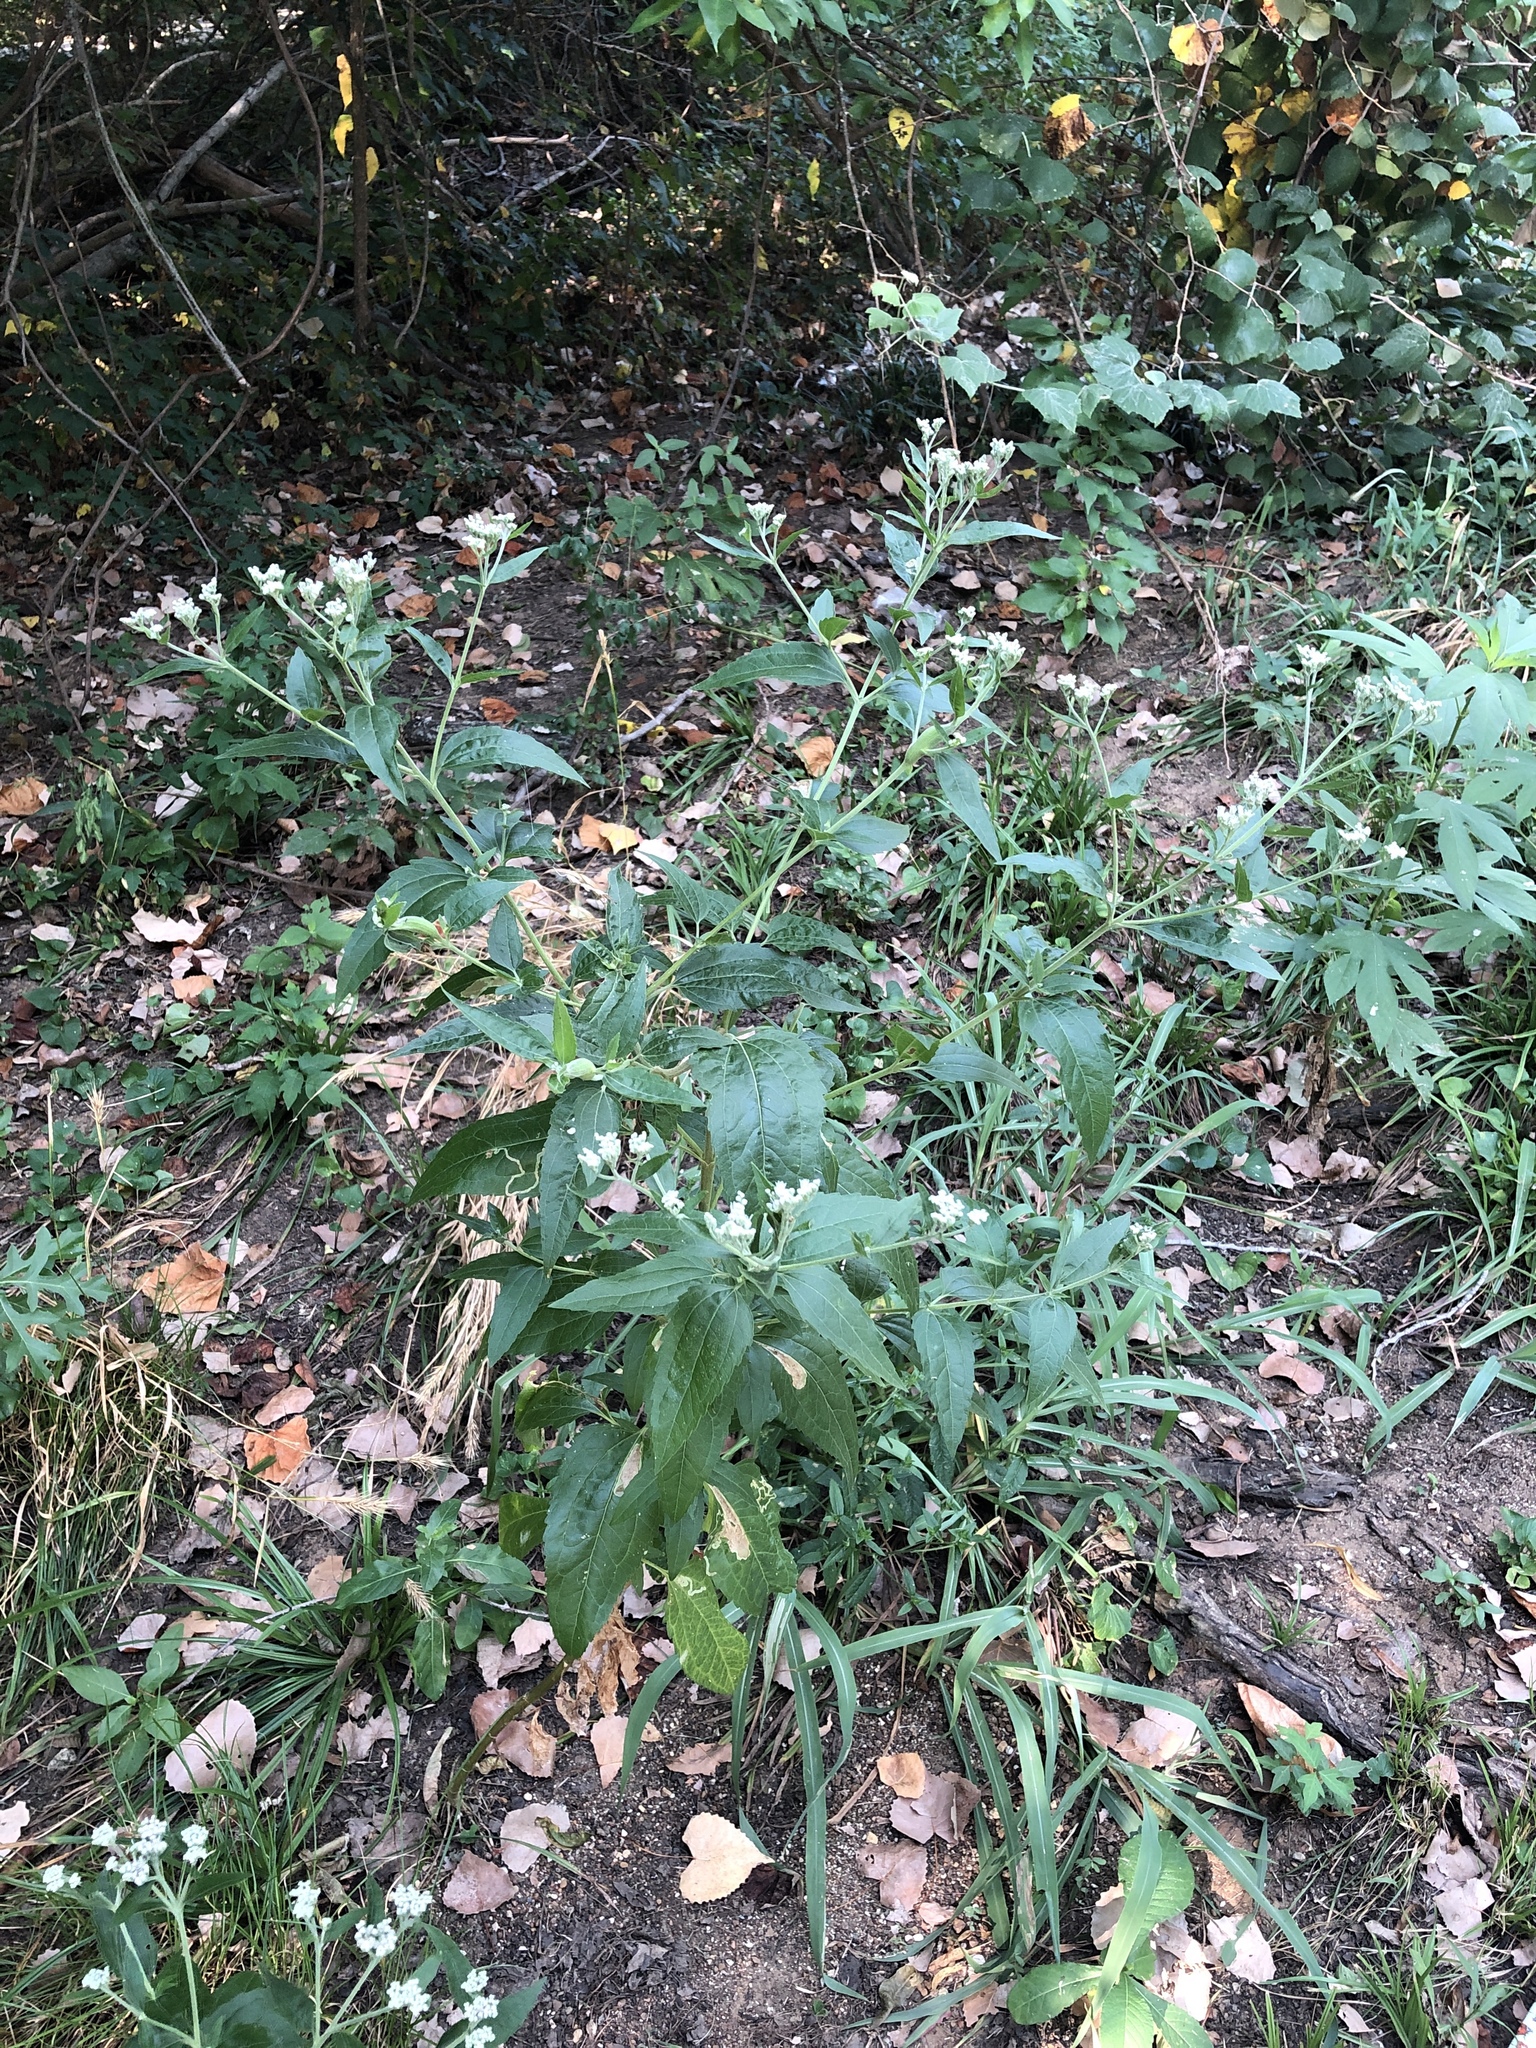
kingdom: Plantae
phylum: Tracheophyta
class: Magnoliopsida
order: Asterales
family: Asteraceae
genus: Eupatorium
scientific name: Eupatorium serotinum
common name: Late boneset
